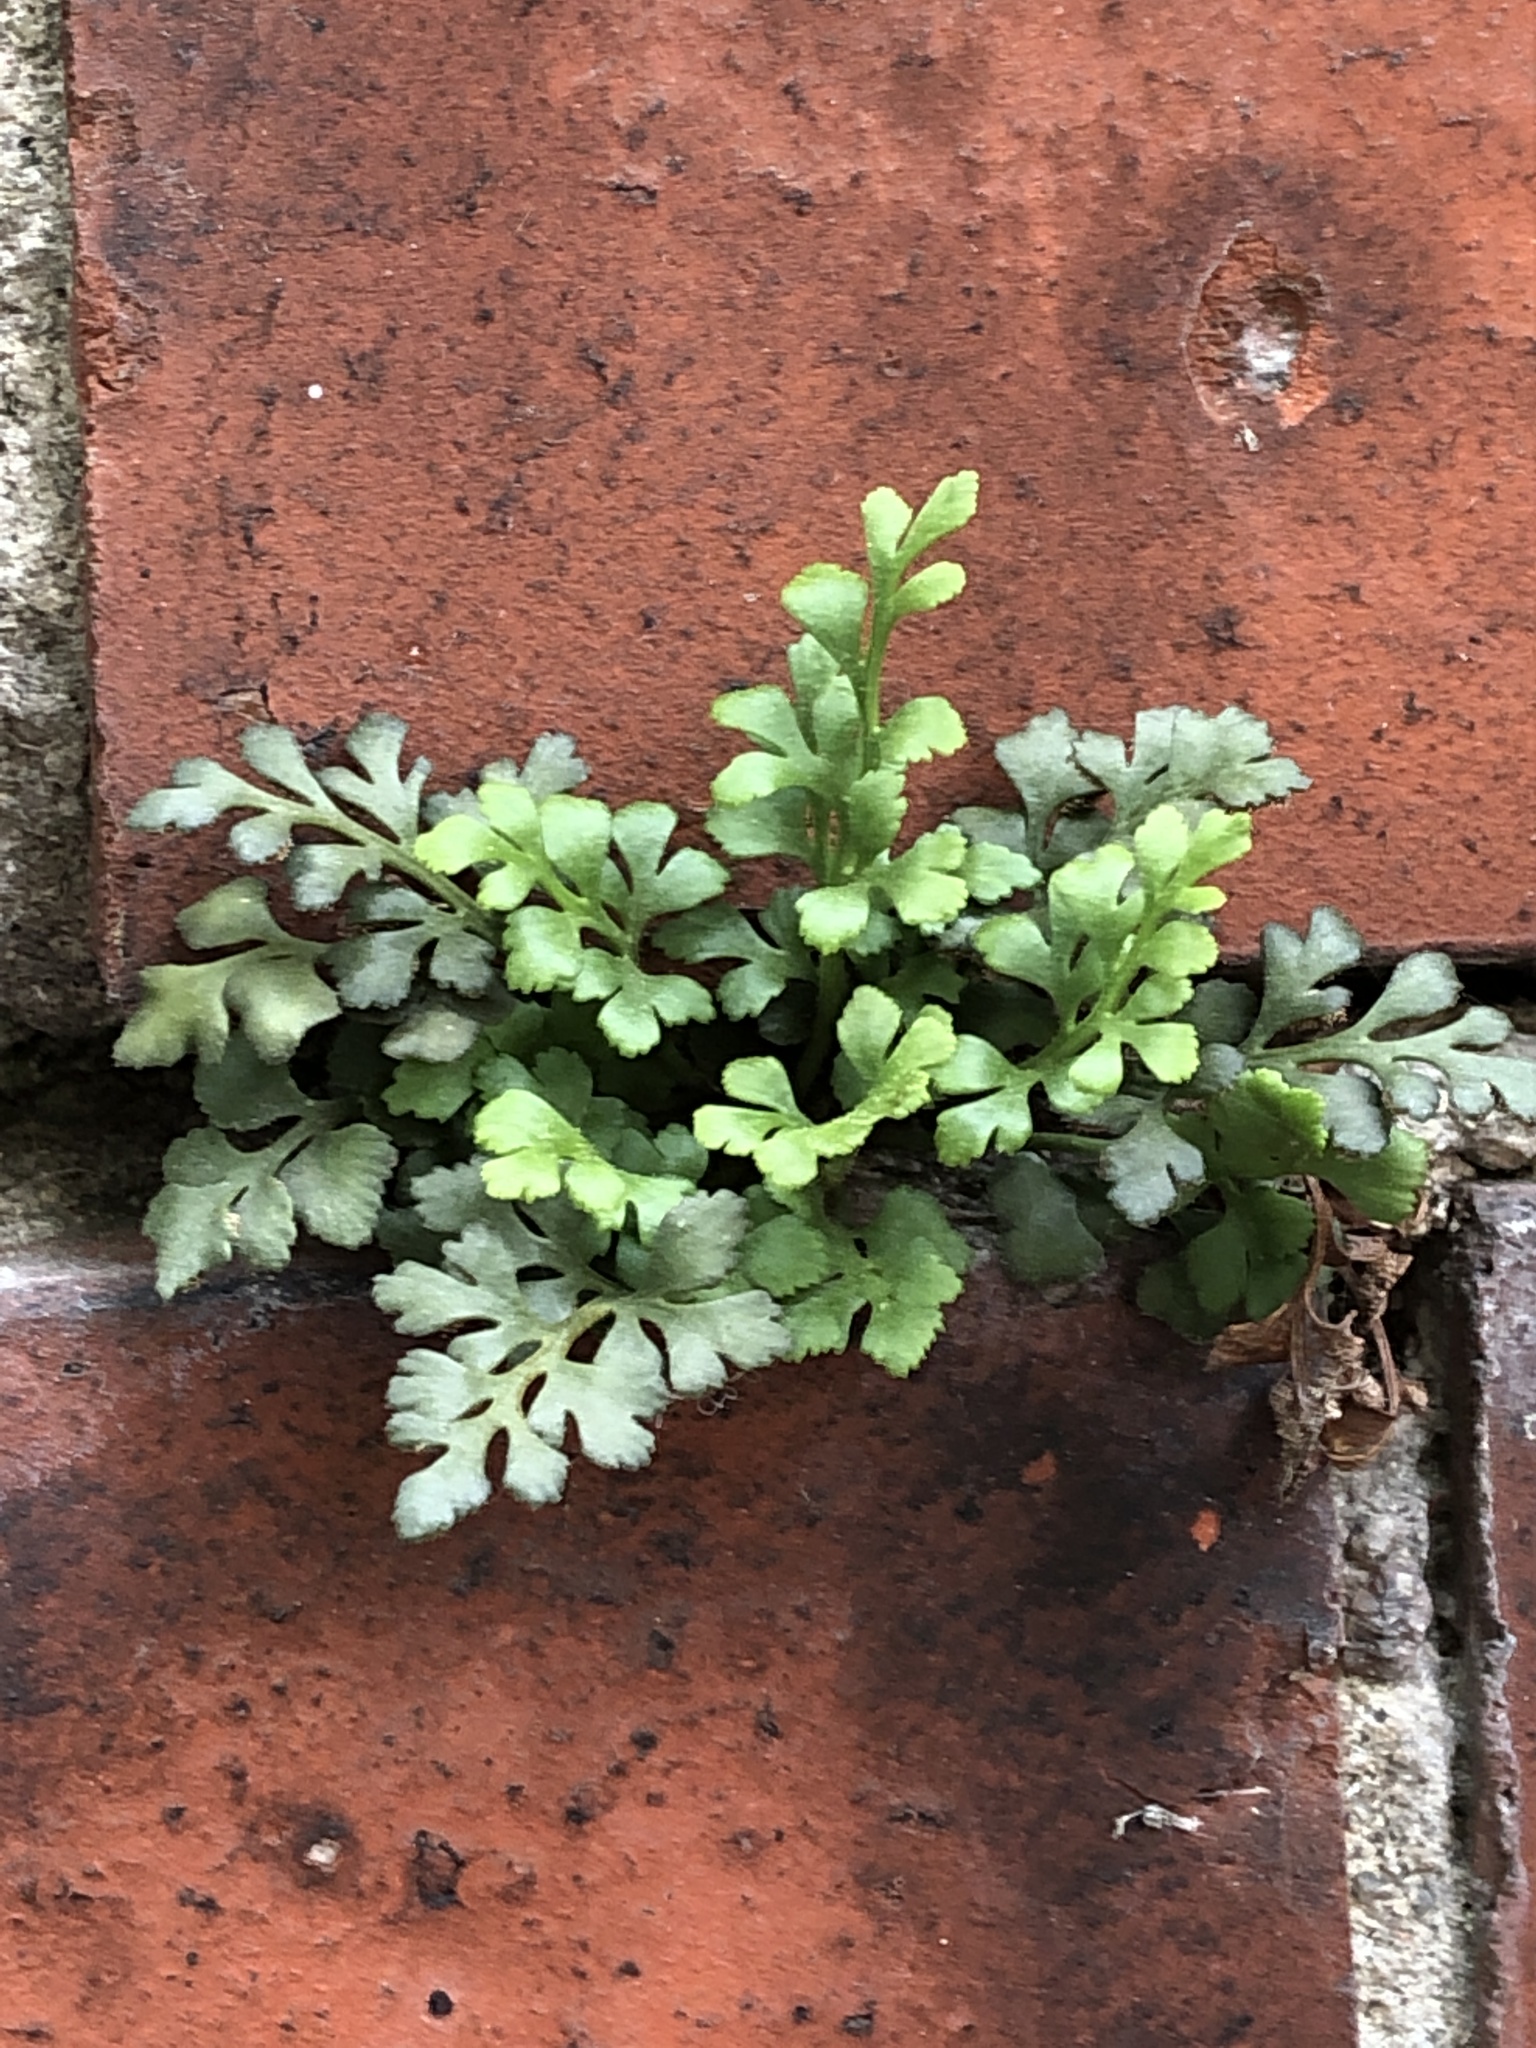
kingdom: Plantae
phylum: Tracheophyta
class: Polypodiopsida
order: Polypodiales
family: Aspleniaceae
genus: Asplenium
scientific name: Asplenium ruta-muraria
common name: Wall-rue
